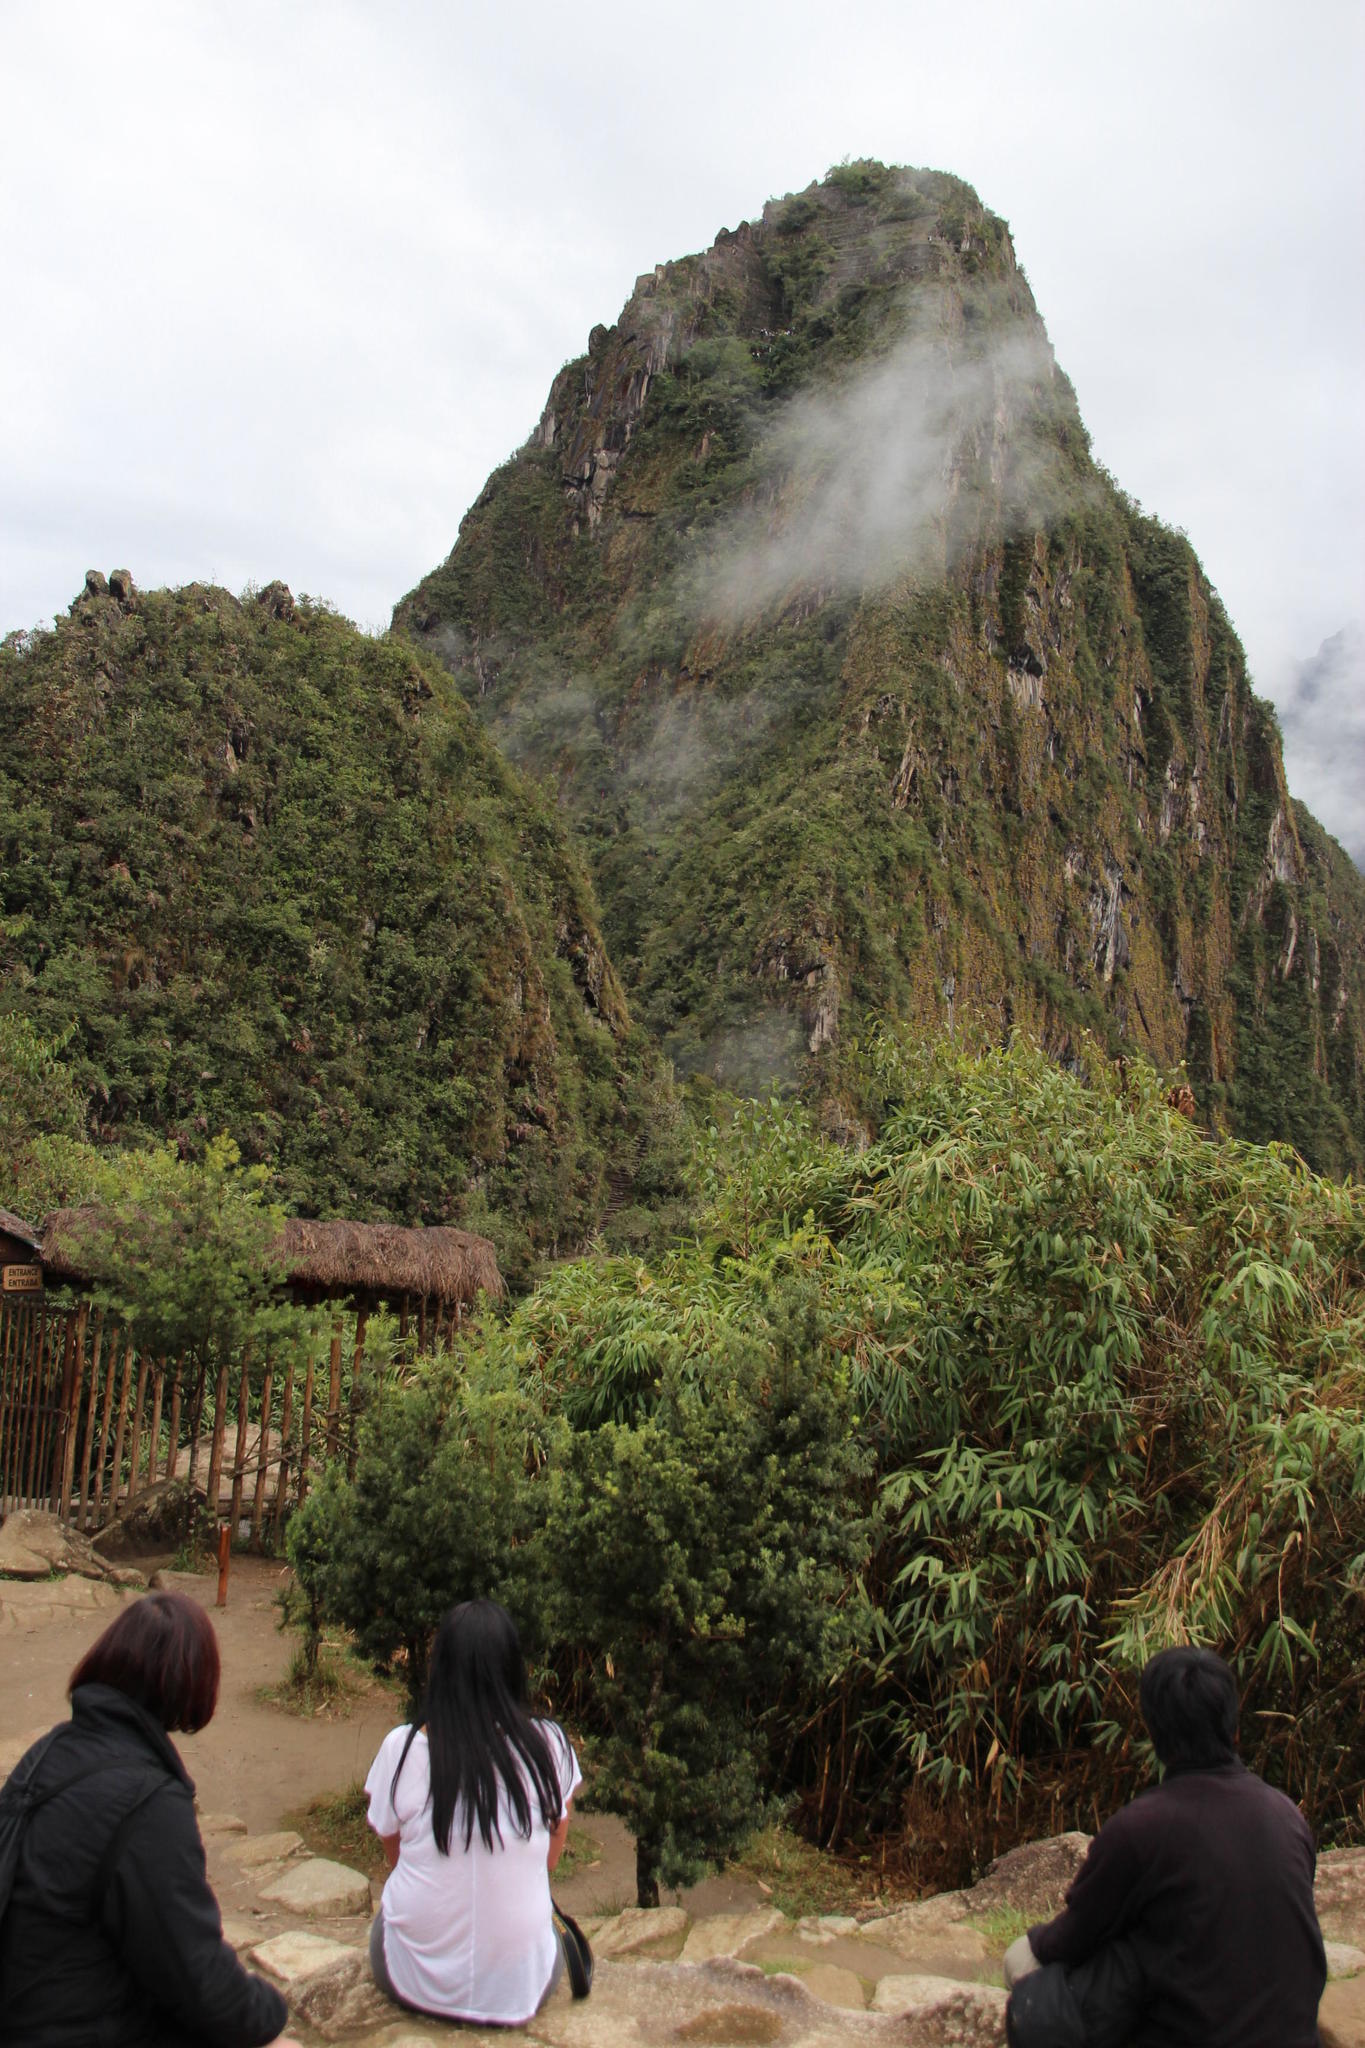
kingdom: Plantae
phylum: Tracheophyta
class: Pinopsida
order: Pinales
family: Podocarpaceae
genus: Podocarpus
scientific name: Podocarpus glomeratus
